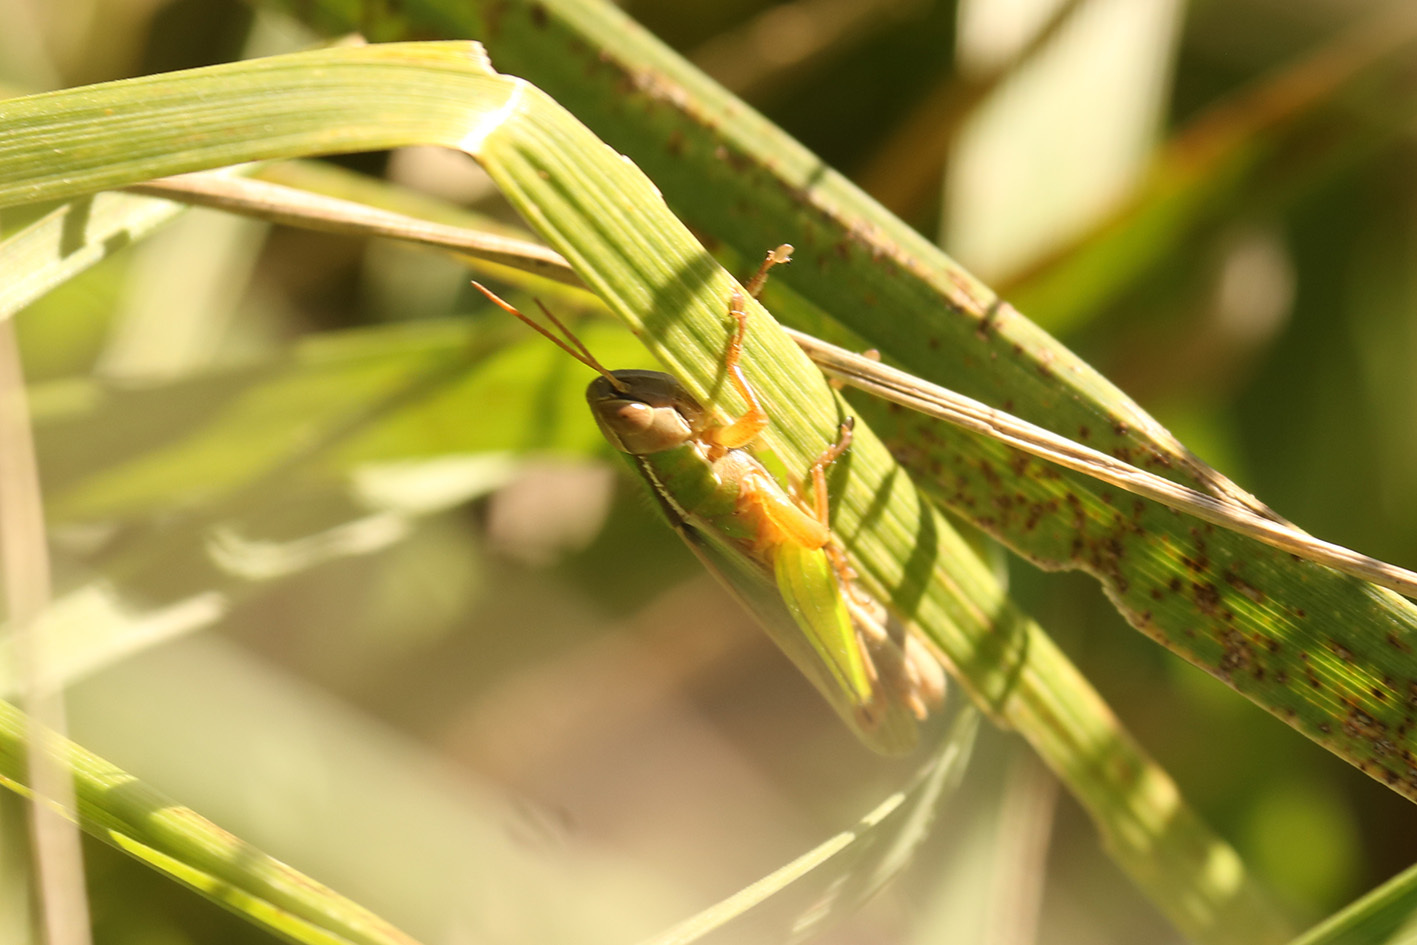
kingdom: Animalia
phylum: Arthropoda
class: Insecta
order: Orthoptera
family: Acrididae
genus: Aleuas
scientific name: Aleuas lineatus
